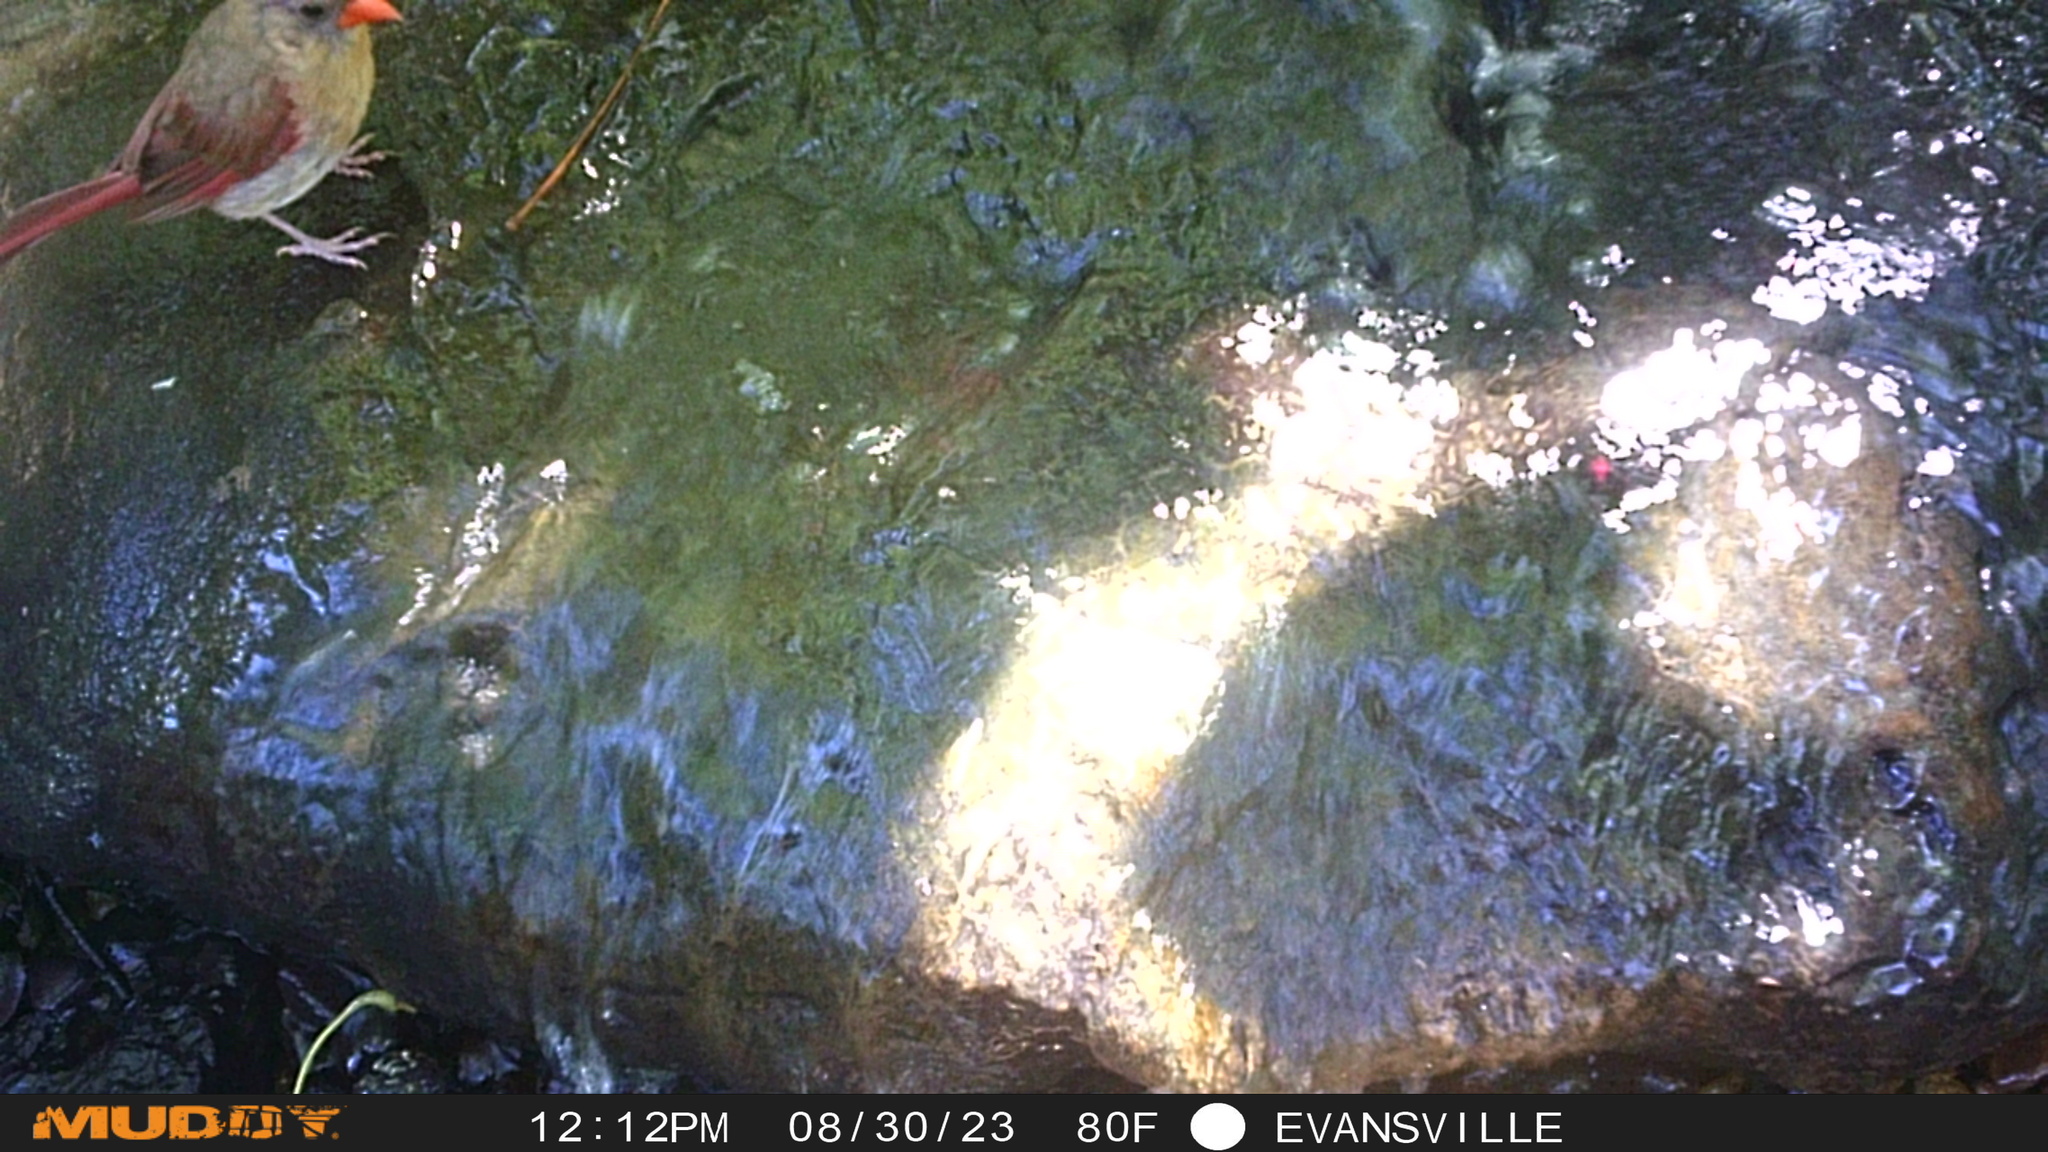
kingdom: Animalia
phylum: Chordata
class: Aves
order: Passeriformes
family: Cardinalidae
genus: Cardinalis
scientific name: Cardinalis cardinalis
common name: Northern cardinal
